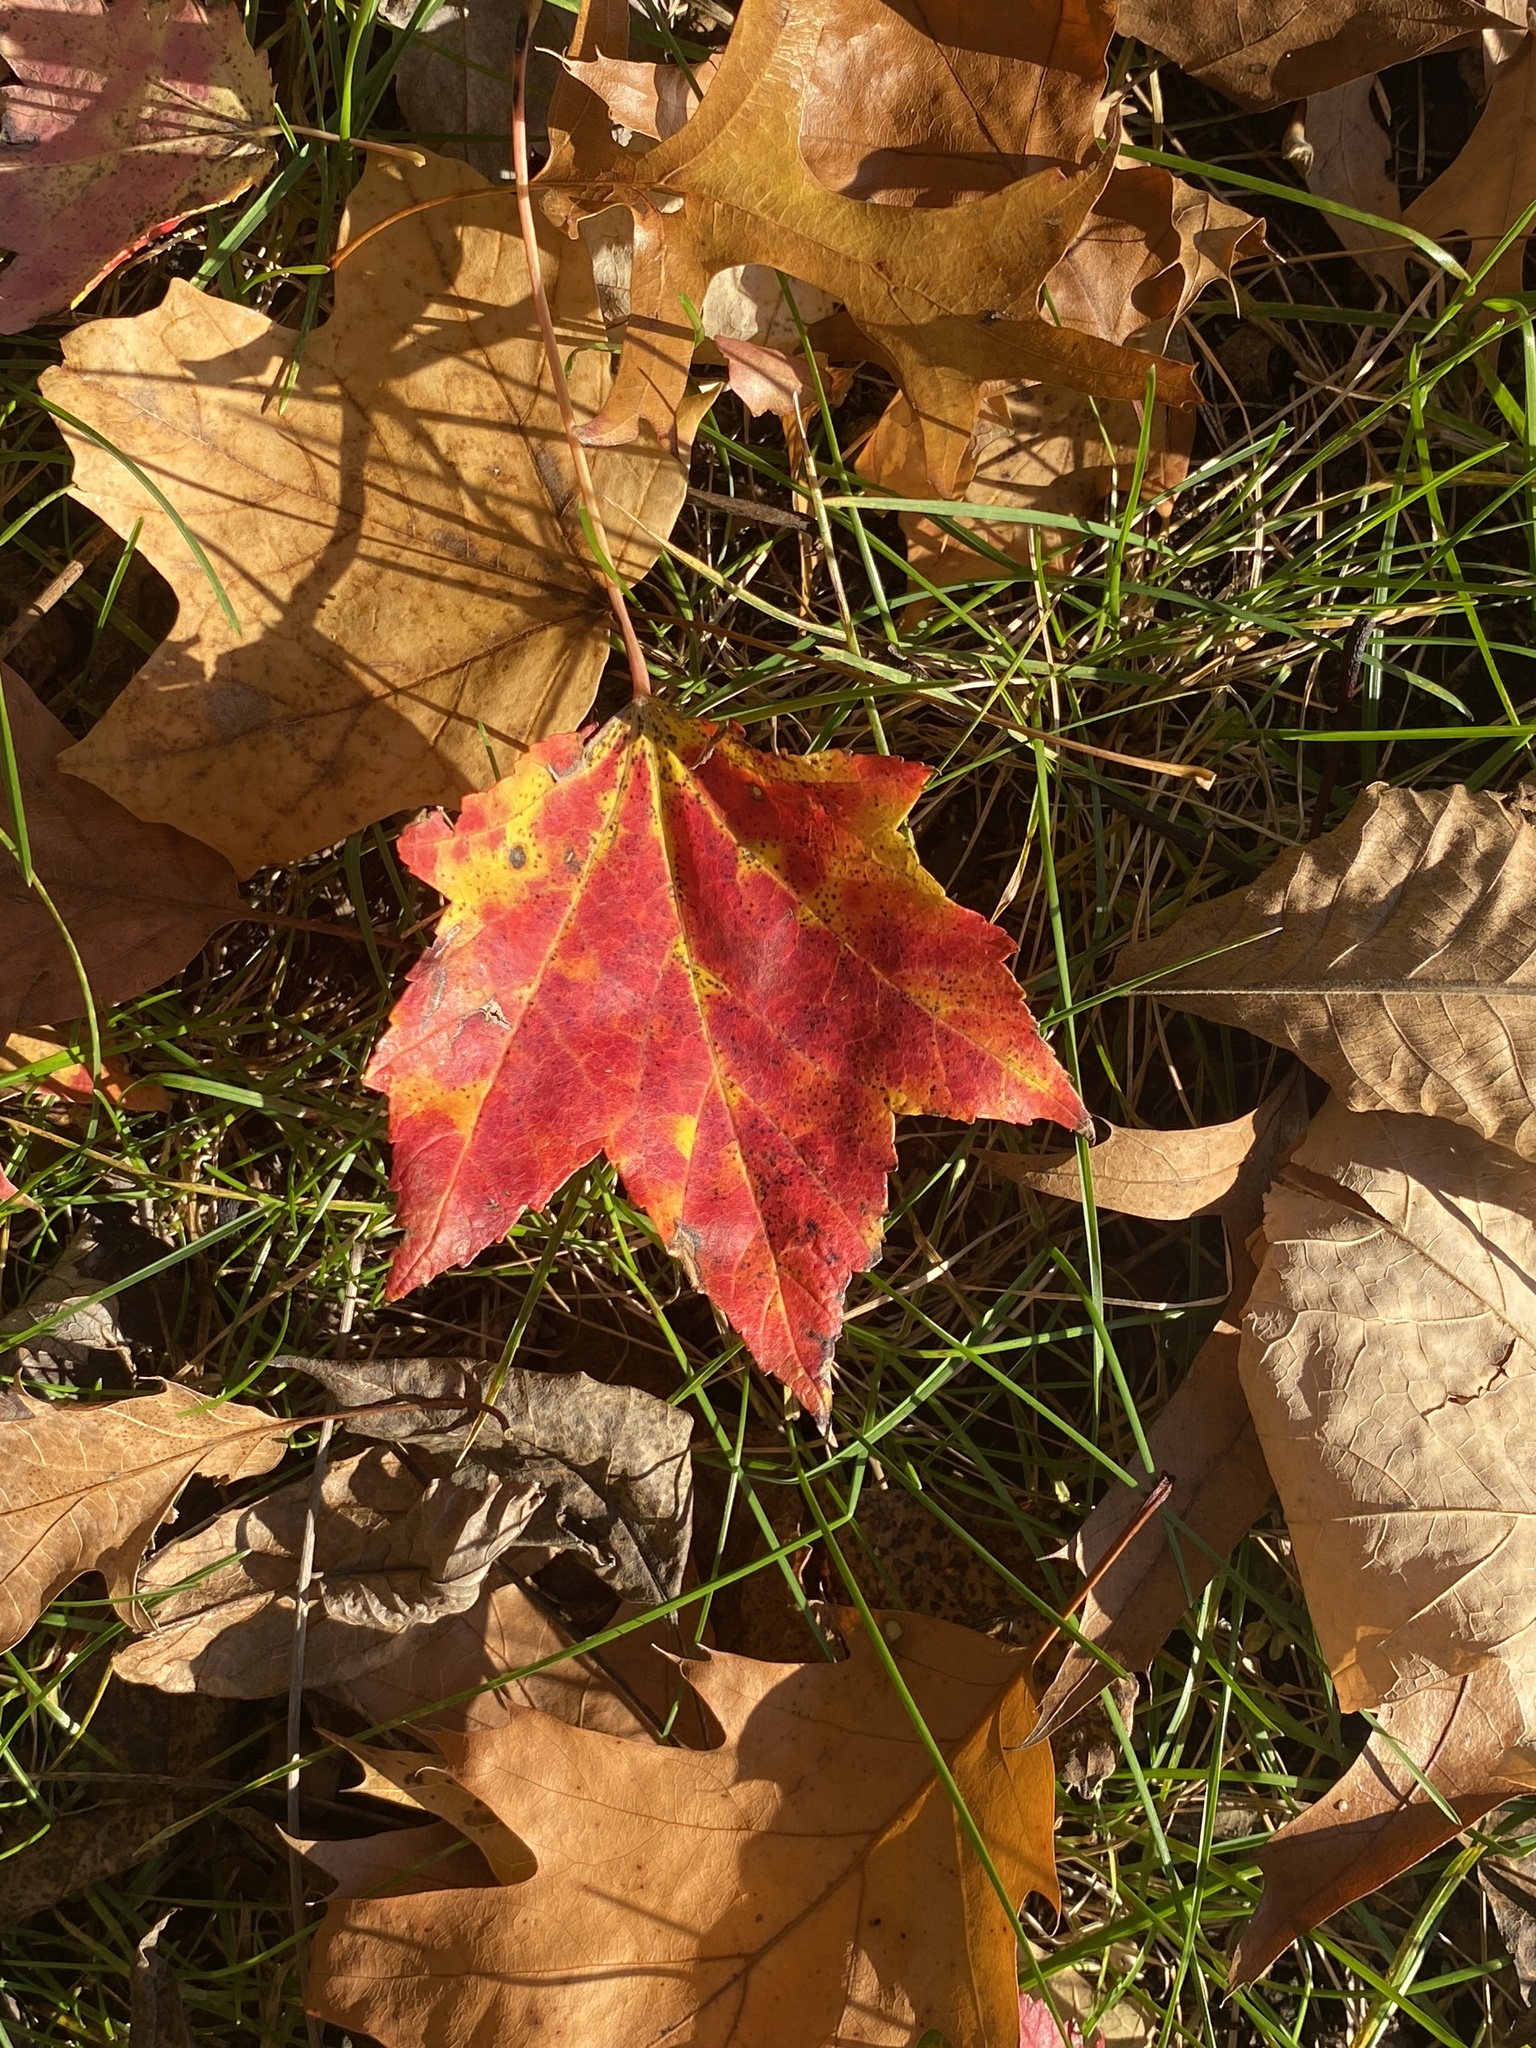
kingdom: Plantae
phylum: Tracheophyta
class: Magnoliopsida
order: Sapindales
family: Sapindaceae
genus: Acer
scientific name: Acer rubrum
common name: Red maple
